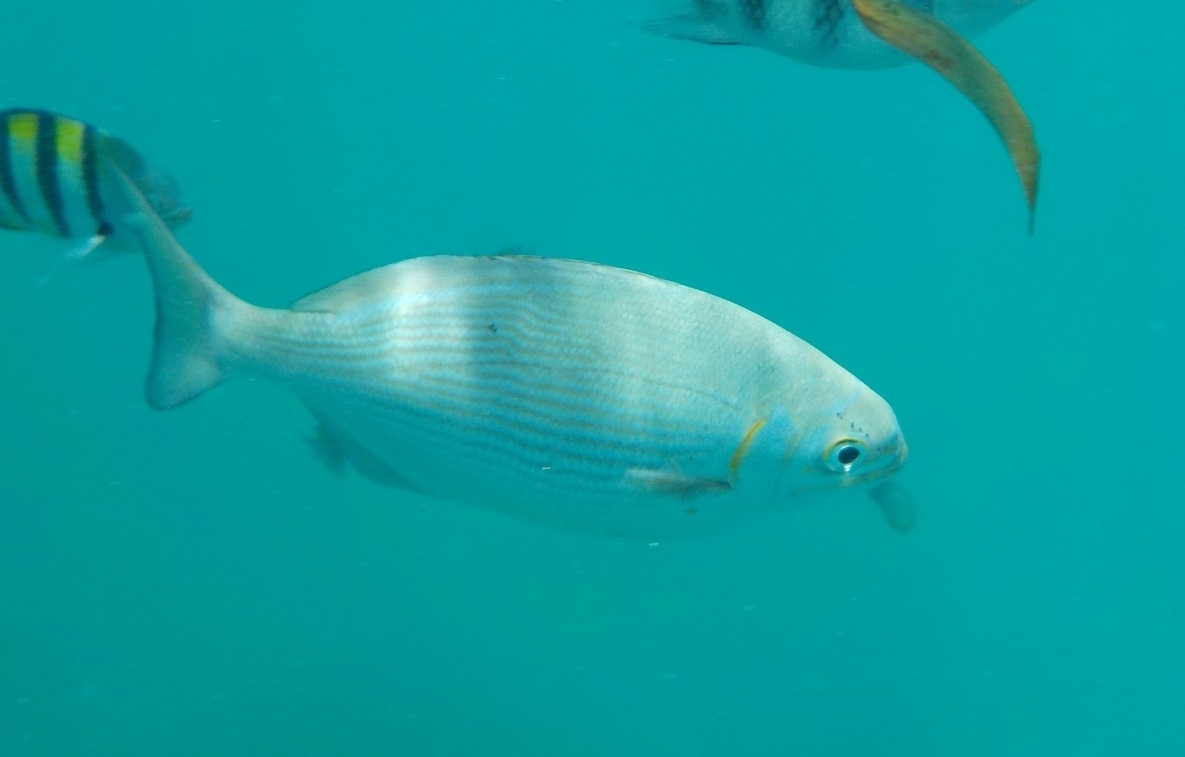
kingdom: Animalia
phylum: Chordata
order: Perciformes
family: Kyphosidae
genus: Kyphosus
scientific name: Kyphosus vaigiensis
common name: Brassy chub
